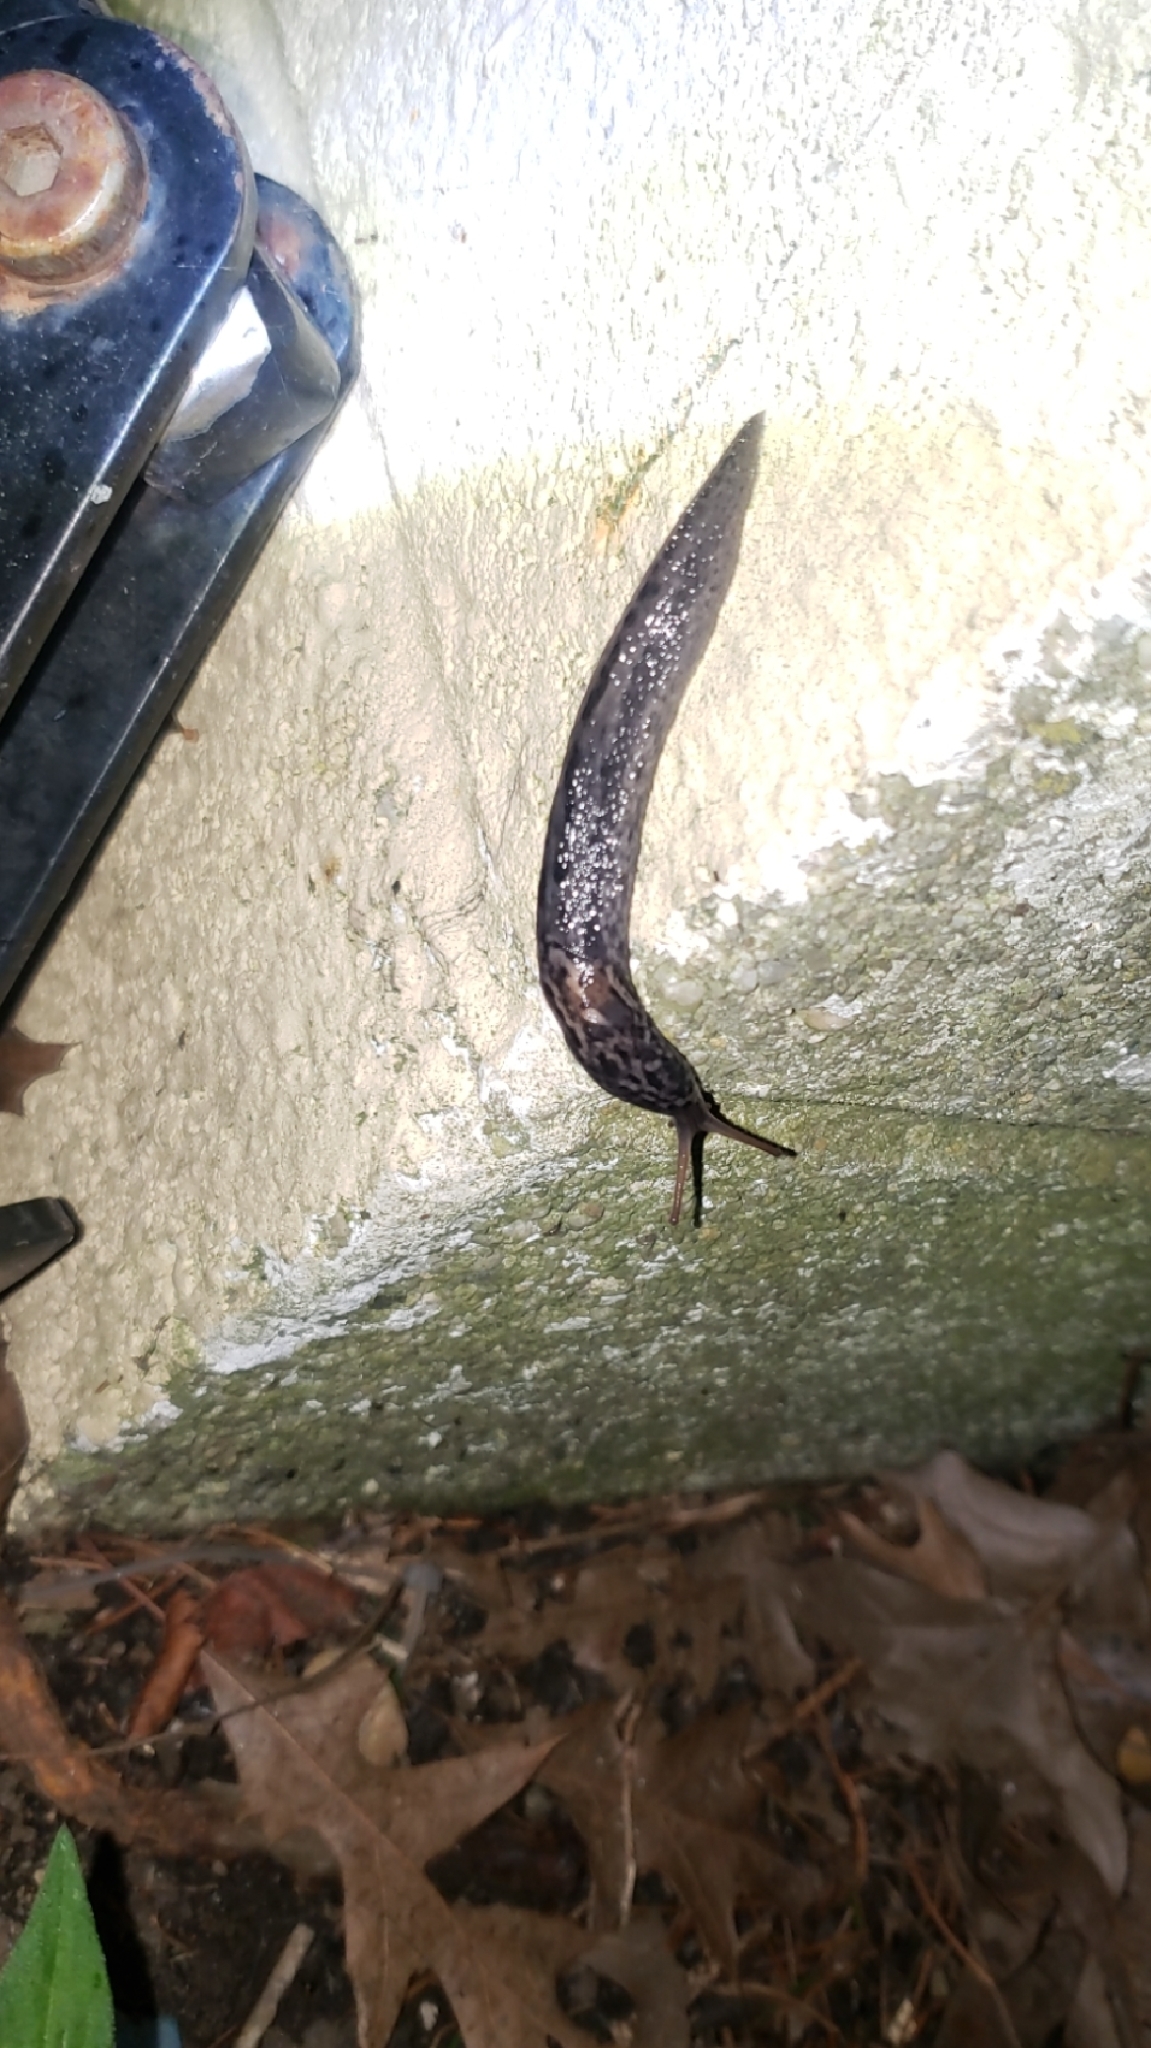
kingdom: Animalia
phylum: Mollusca
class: Gastropoda
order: Stylommatophora
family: Limacidae
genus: Limax
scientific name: Limax maximus
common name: Great grey slug
